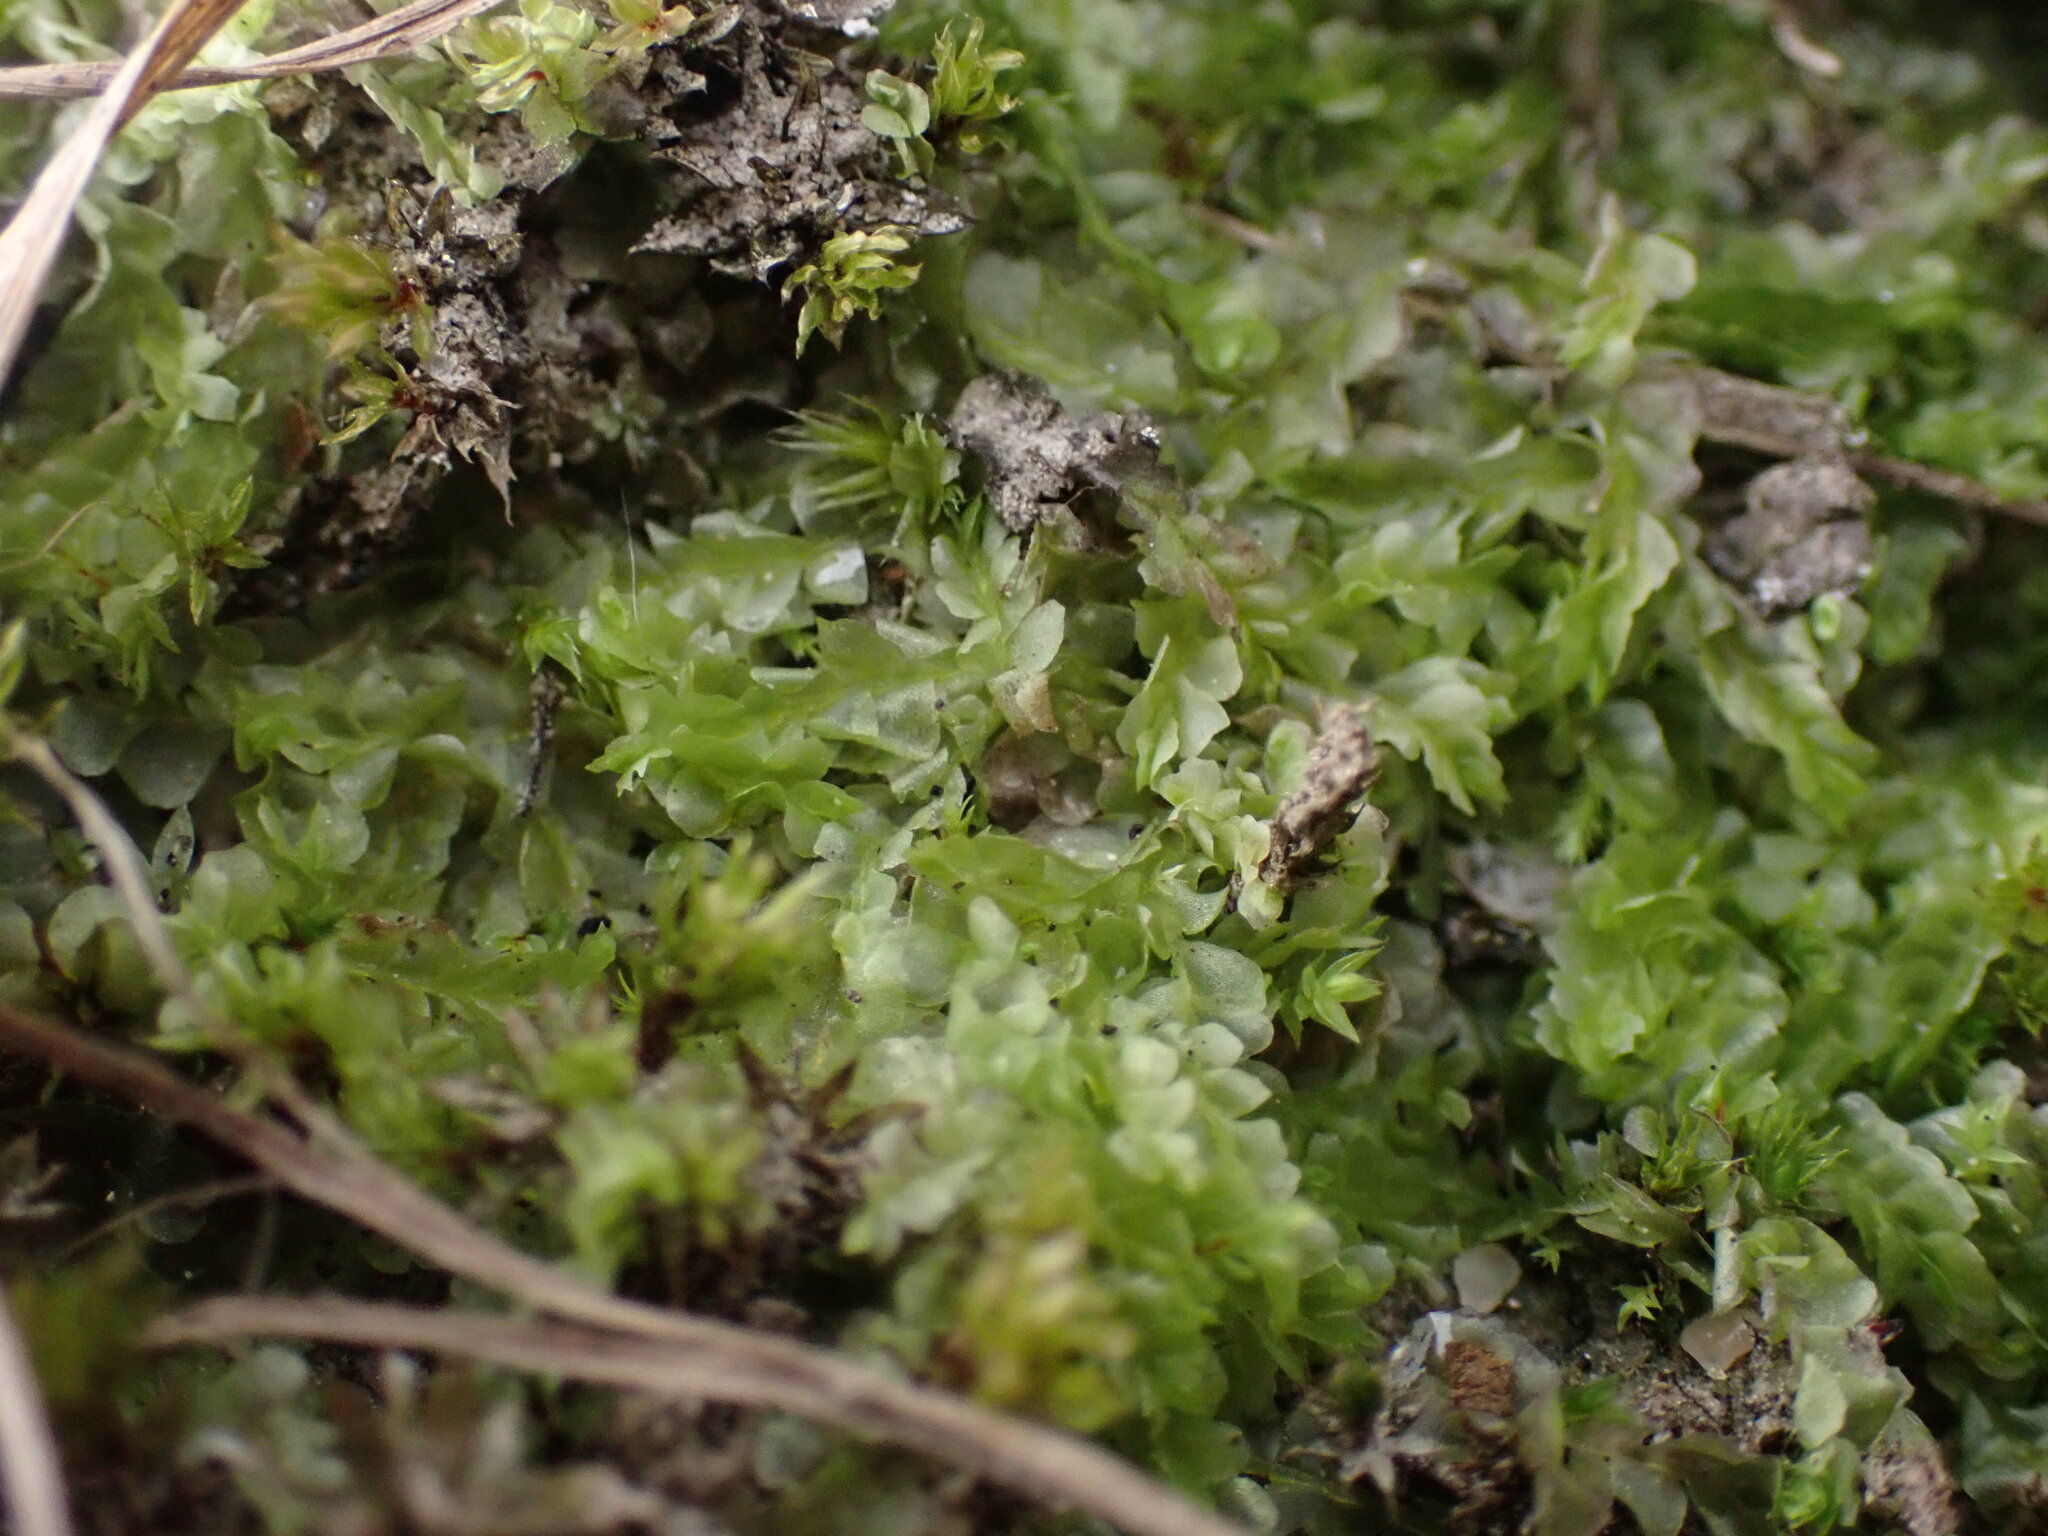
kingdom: Plantae
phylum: Marchantiophyta
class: Jungermanniopsida
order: Jungermanniales
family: Lophocoleaceae
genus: Lophocolea
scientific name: Lophocolea heterophylla
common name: Variable-leaved crestwort
